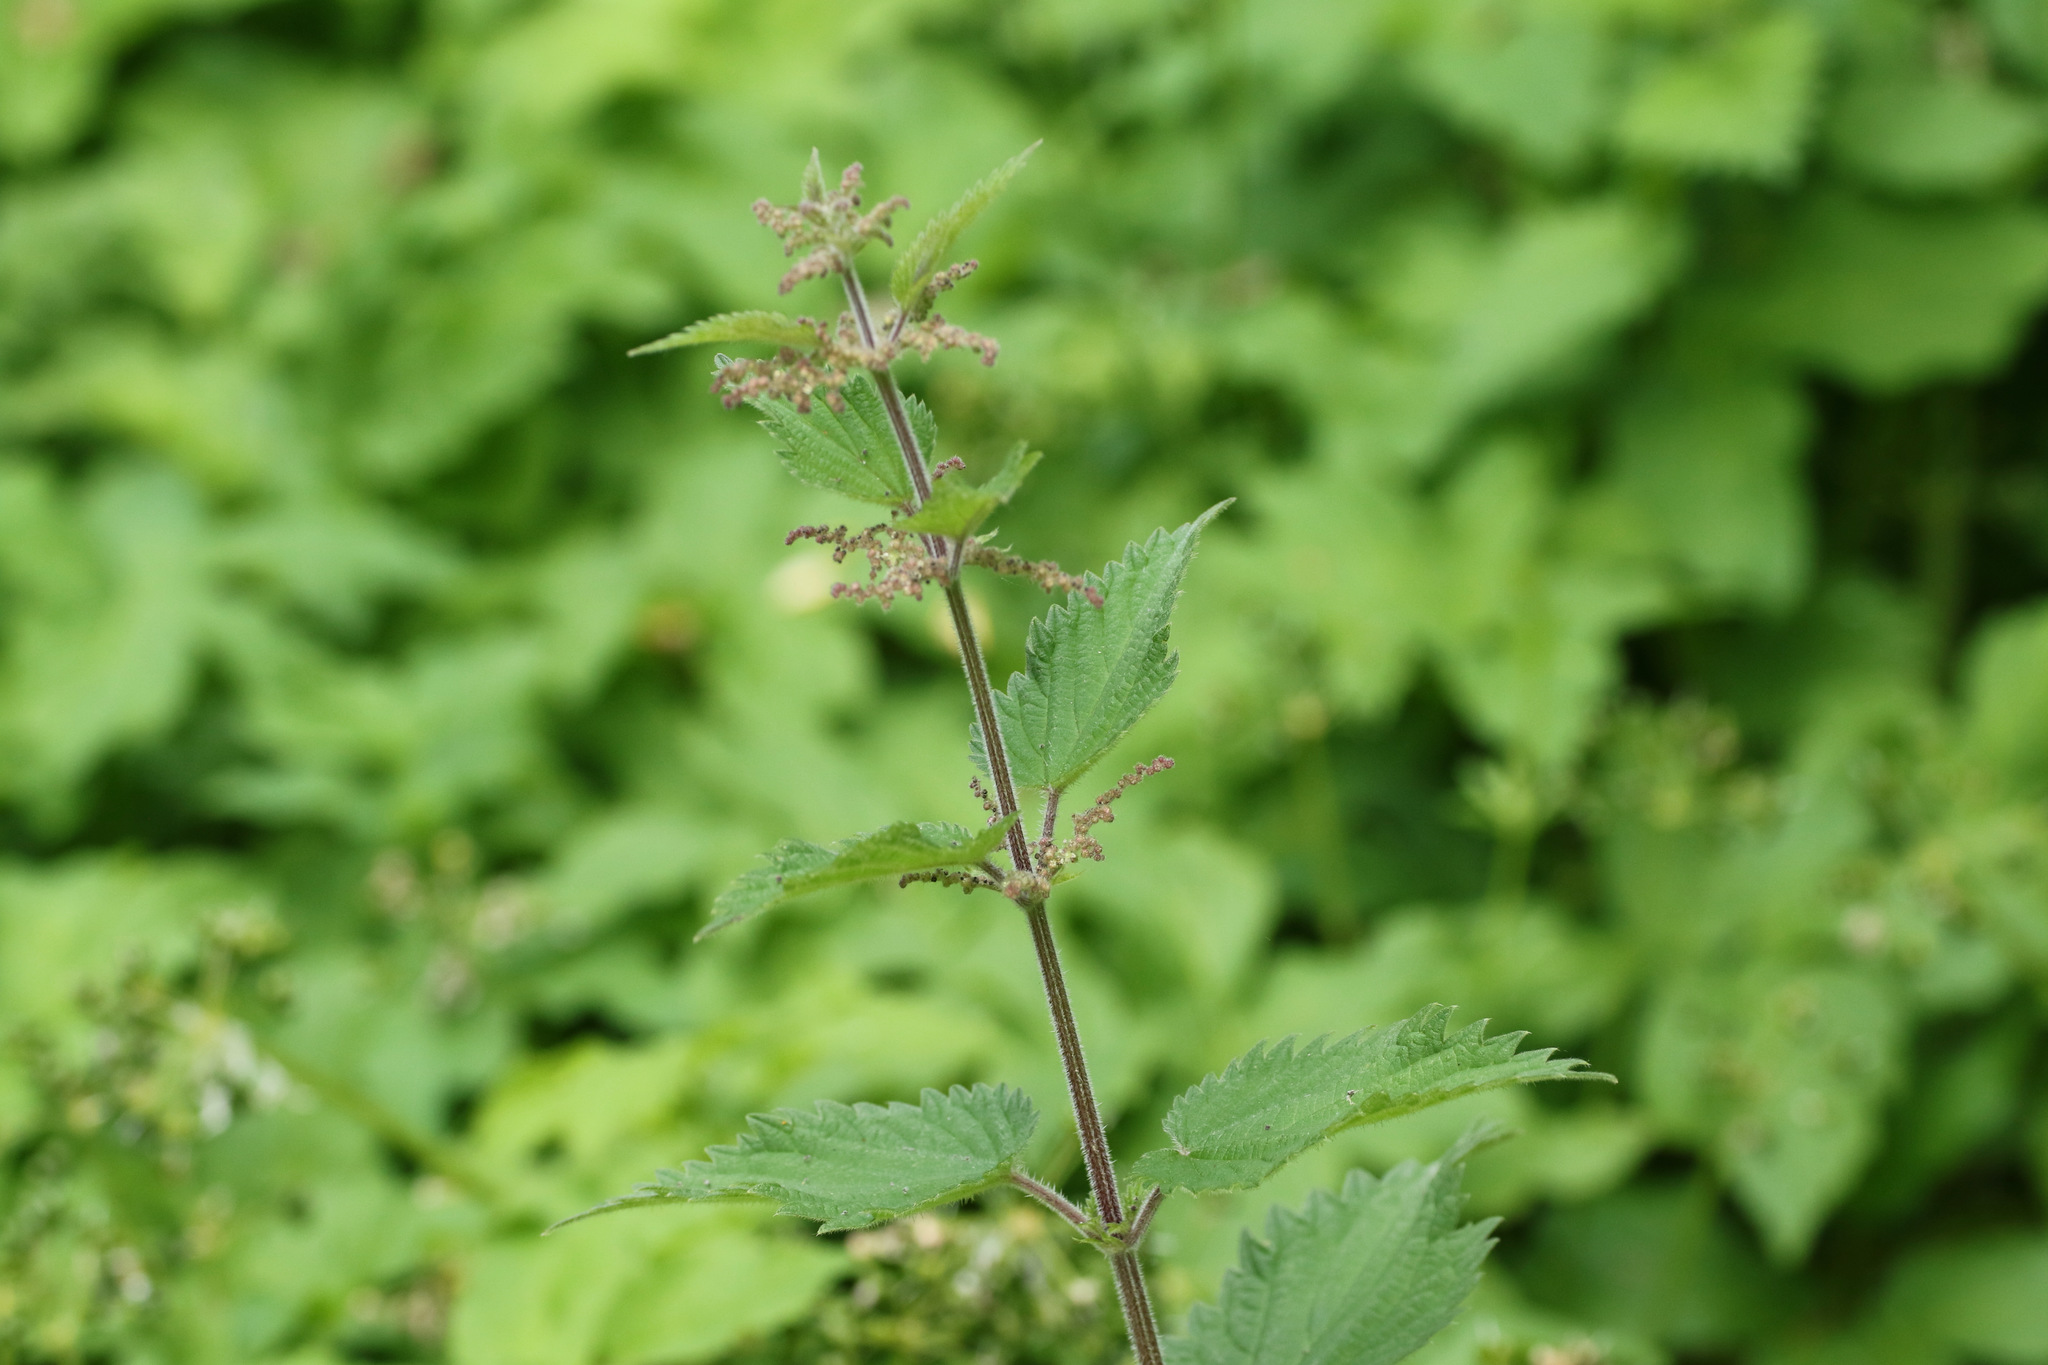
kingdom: Plantae
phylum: Tracheophyta
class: Magnoliopsida
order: Rosales
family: Urticaceae
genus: Urtica
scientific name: Urtica dioica
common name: Common nettle
